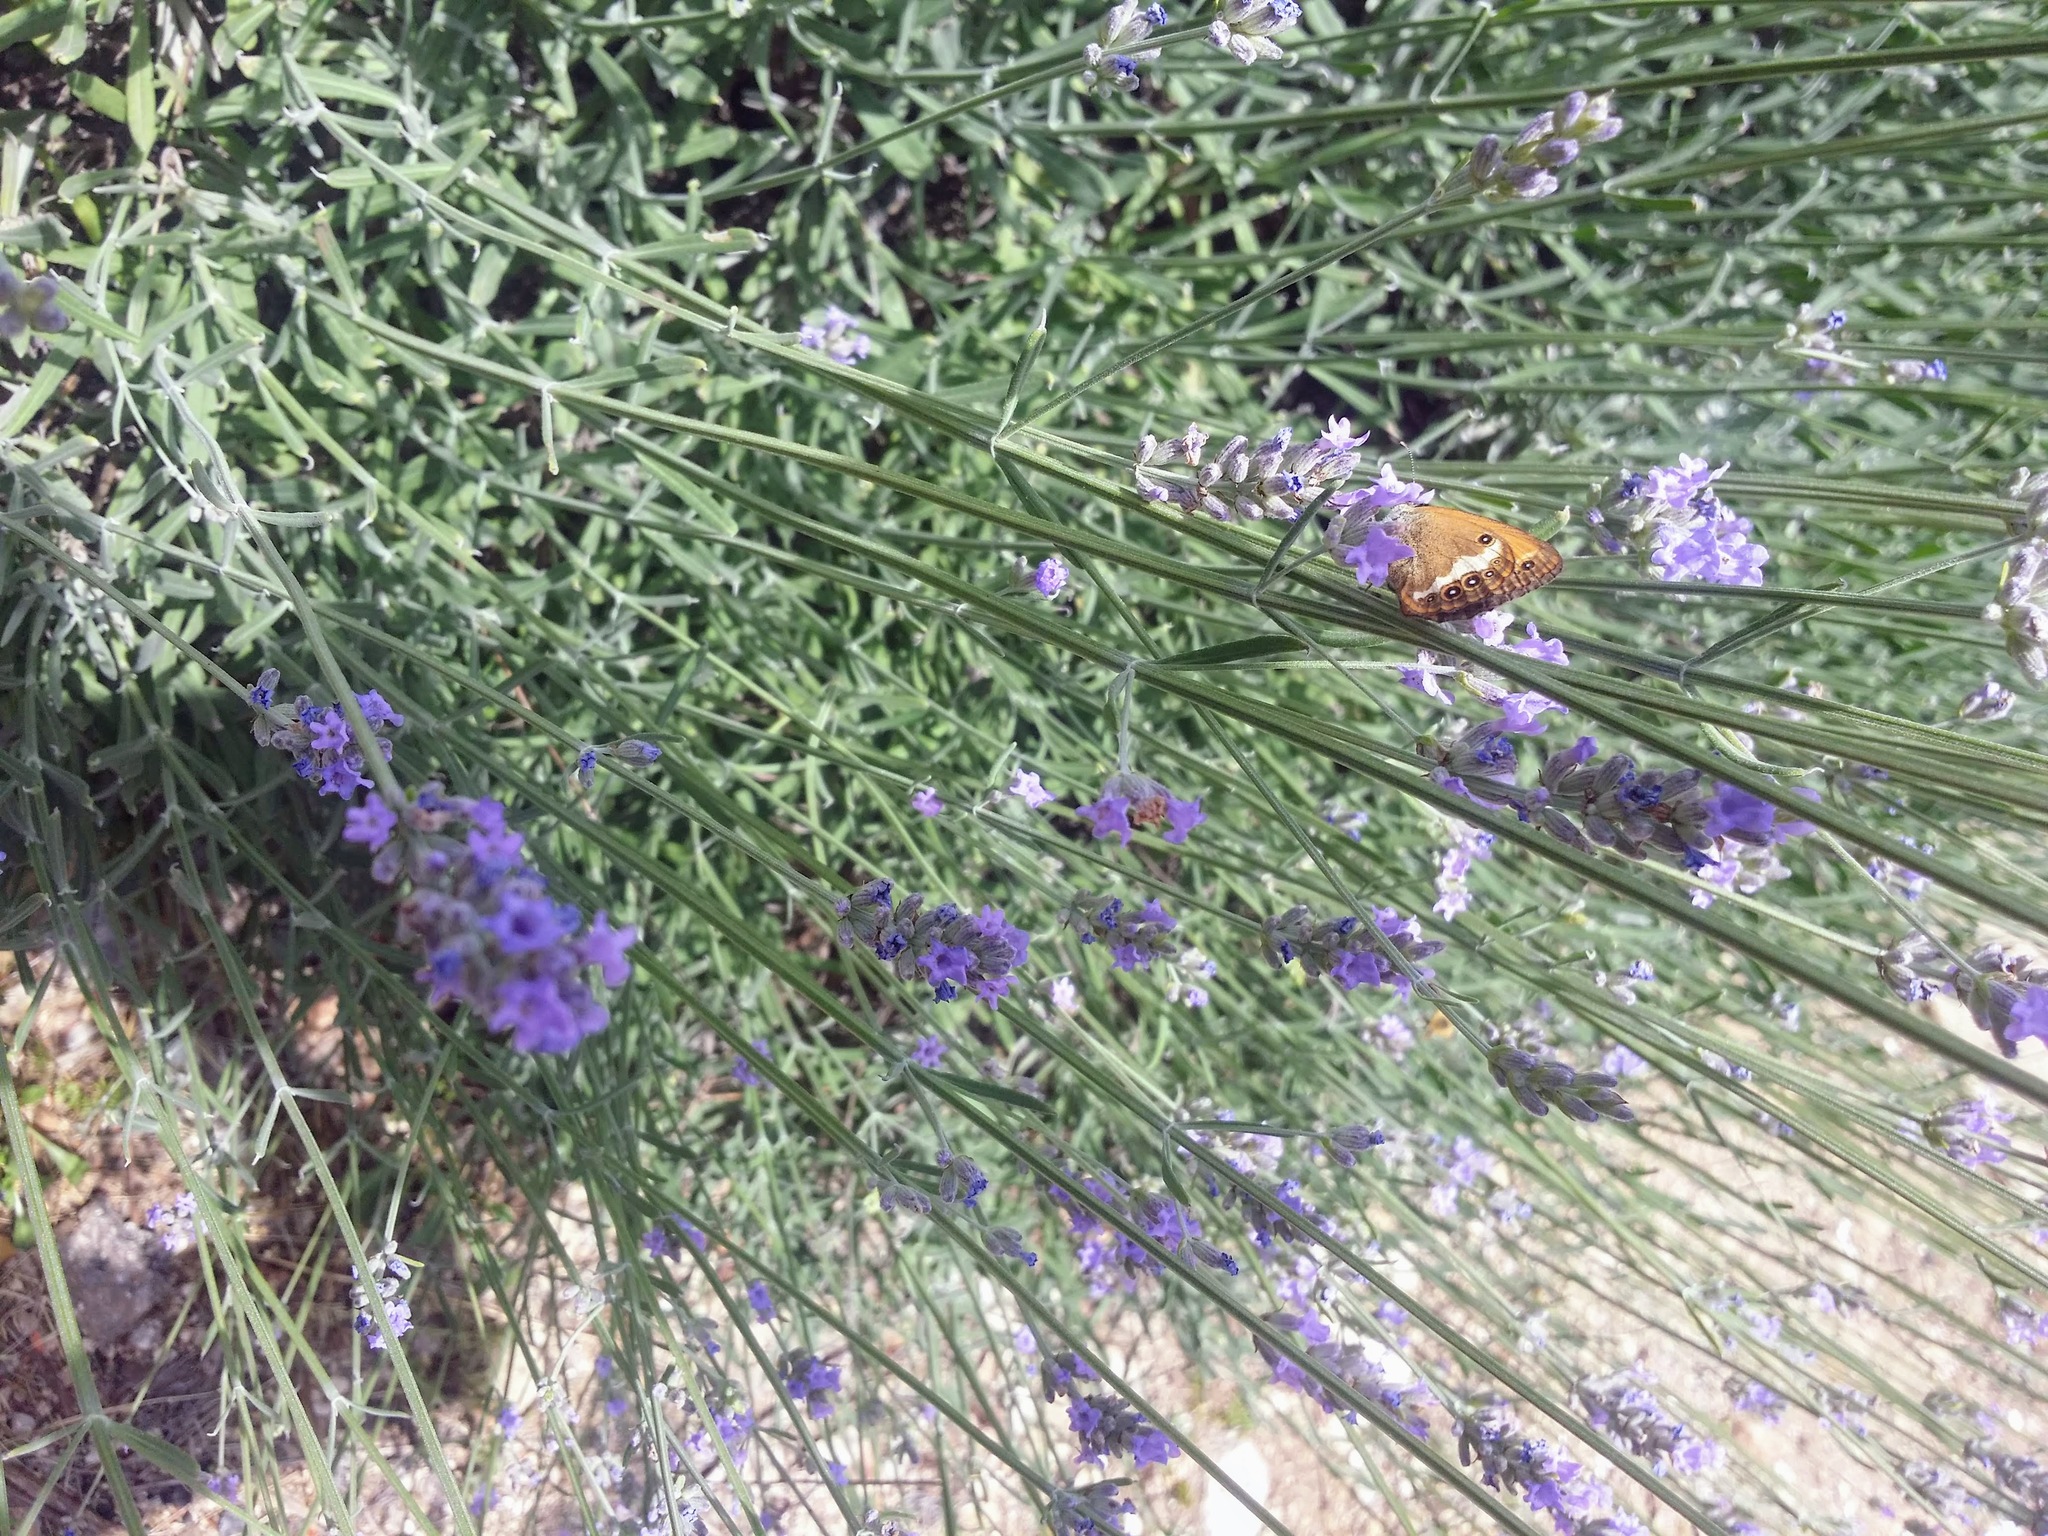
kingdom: Animalia
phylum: Arthropoda
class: Insecta
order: Lepidoptera
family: Nymphalidae
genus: Coenonympha
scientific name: Coenonympha arcania
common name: Pearly heath
